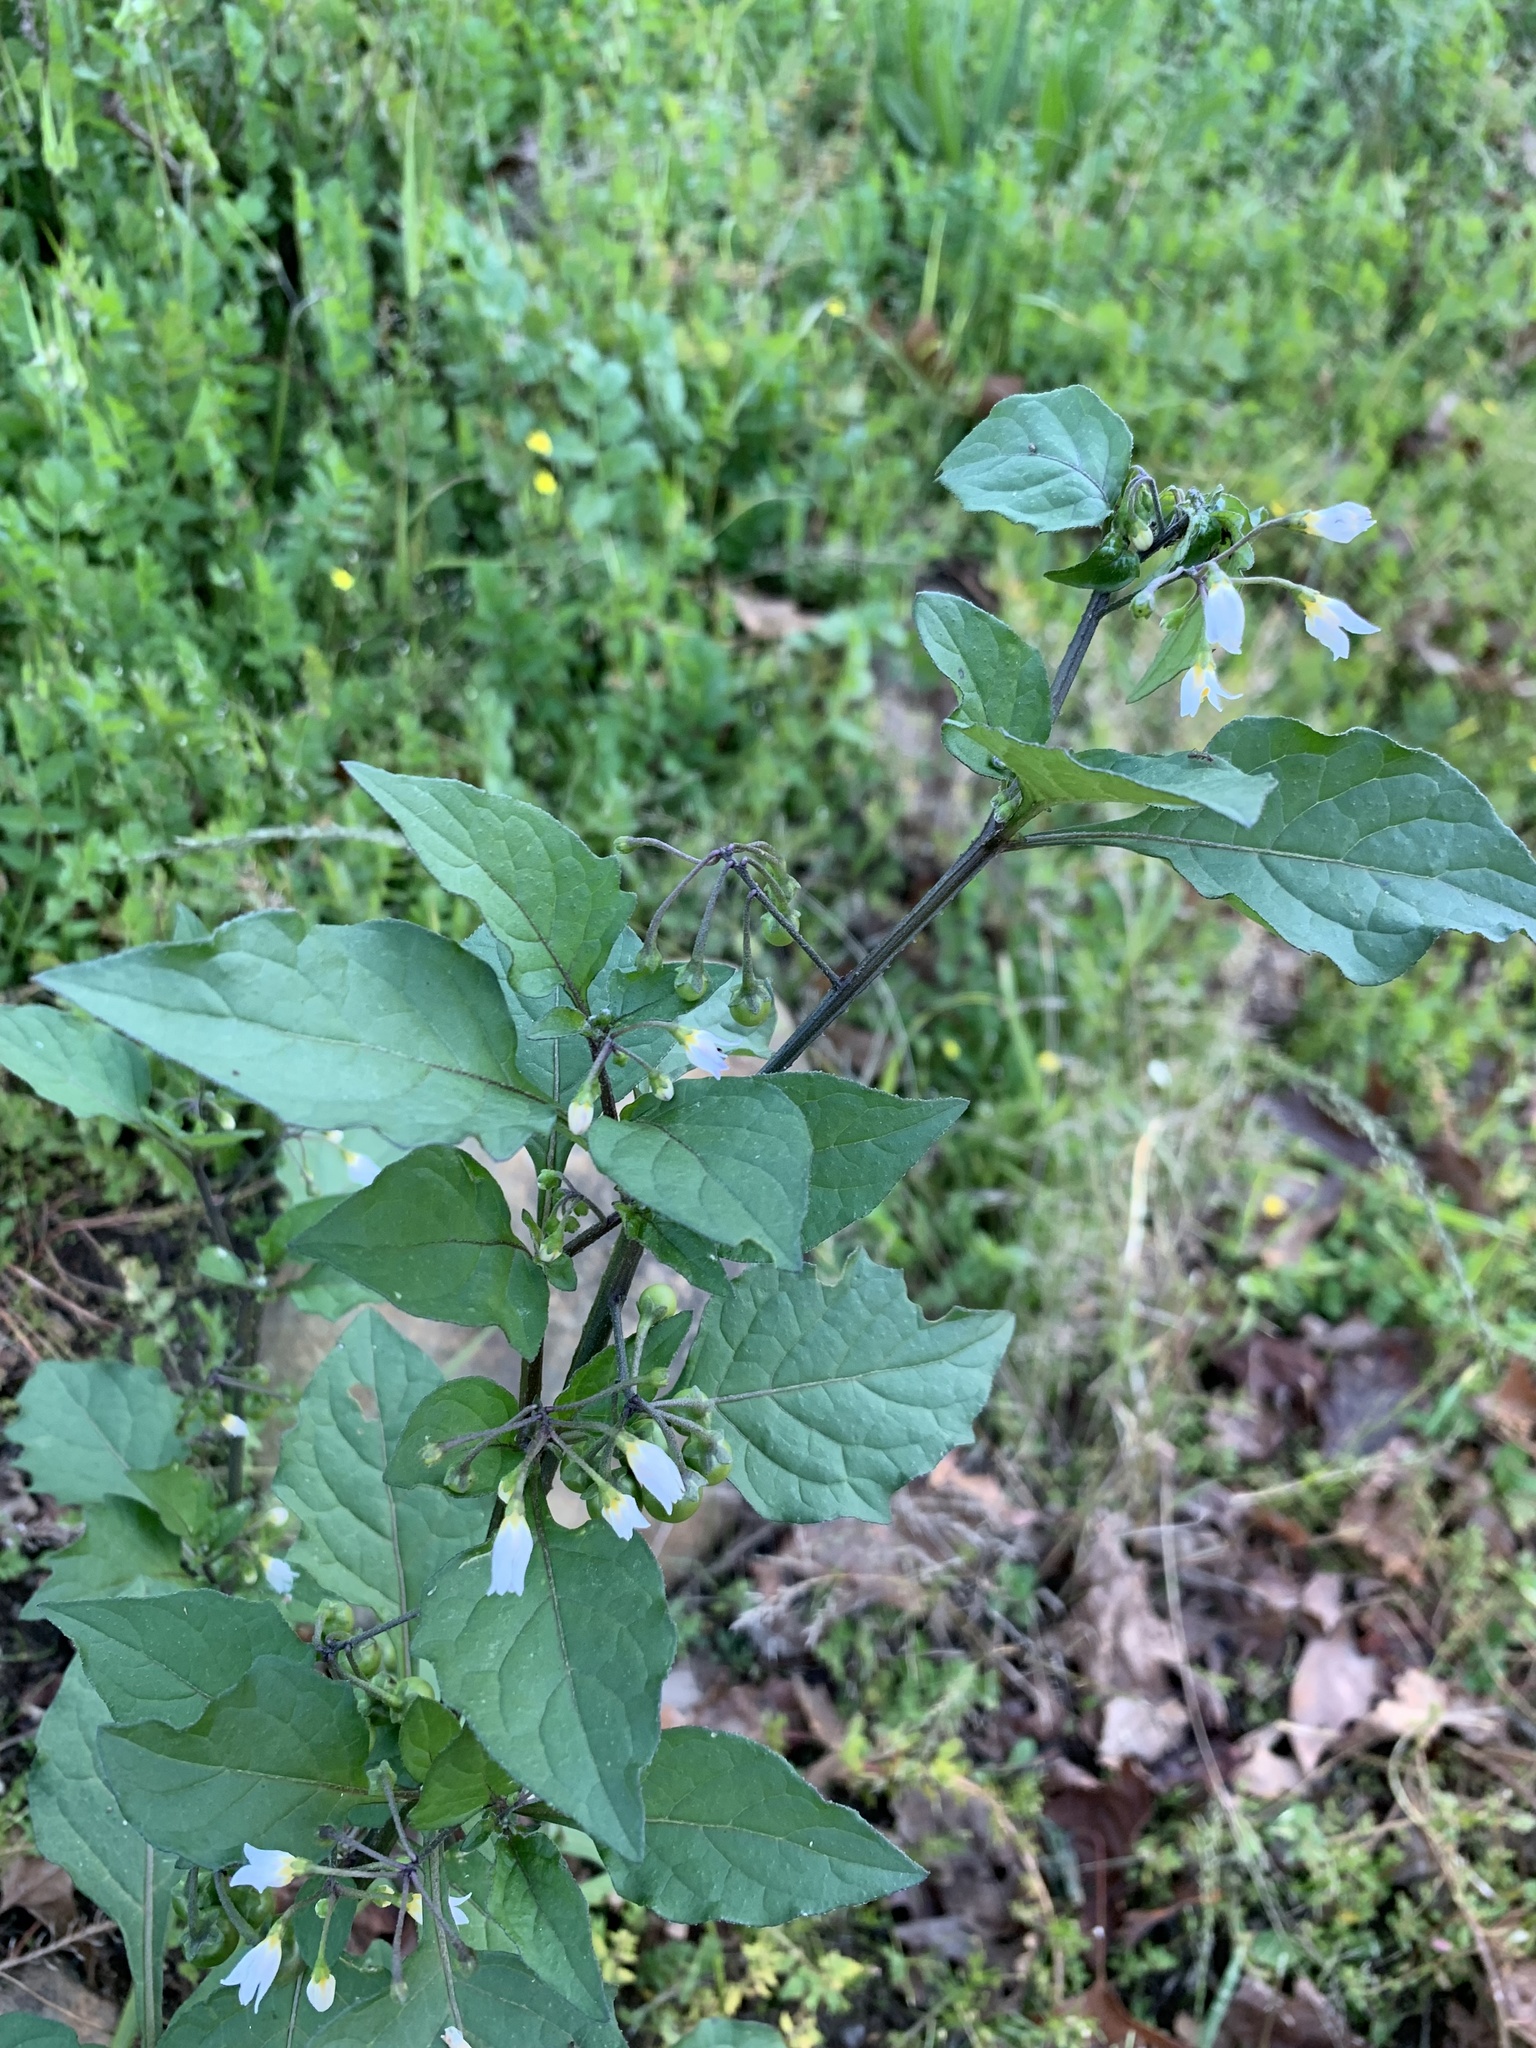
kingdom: Plantae
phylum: Tracheophyta
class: Magnoliopsida
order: Solanales
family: Solanaceae
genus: Solanum
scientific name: Solanum nigrum
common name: Black nightshade
